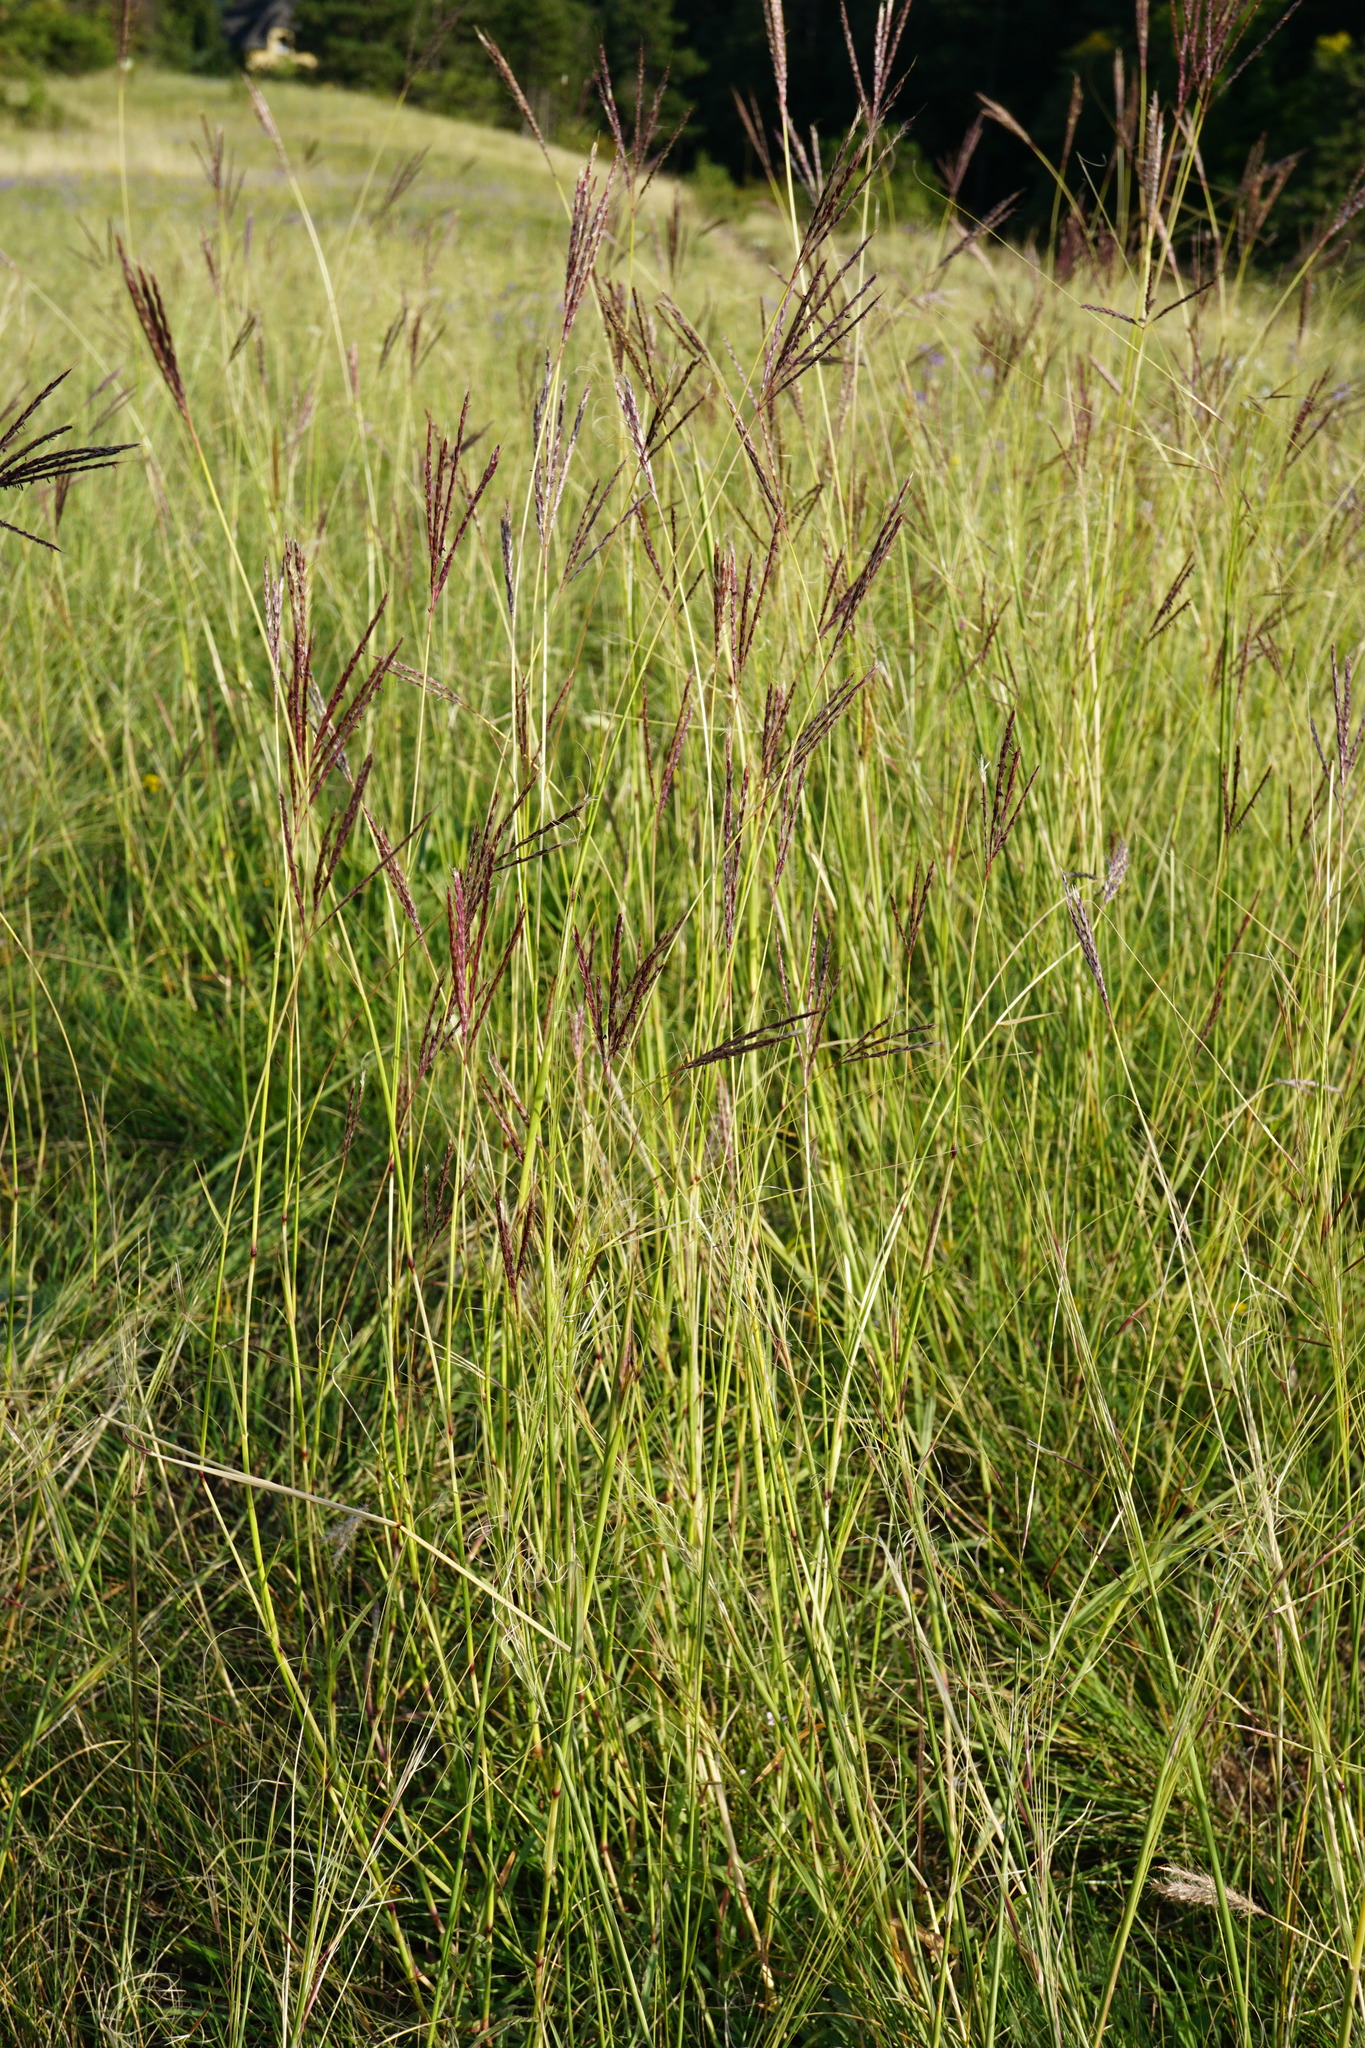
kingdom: Plantae
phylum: Tracheophyta
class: Liliopsida
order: Poales
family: Poaceae
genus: Bothriochloa
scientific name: Bothriochloa ischaemum
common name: Yellow bluestem
